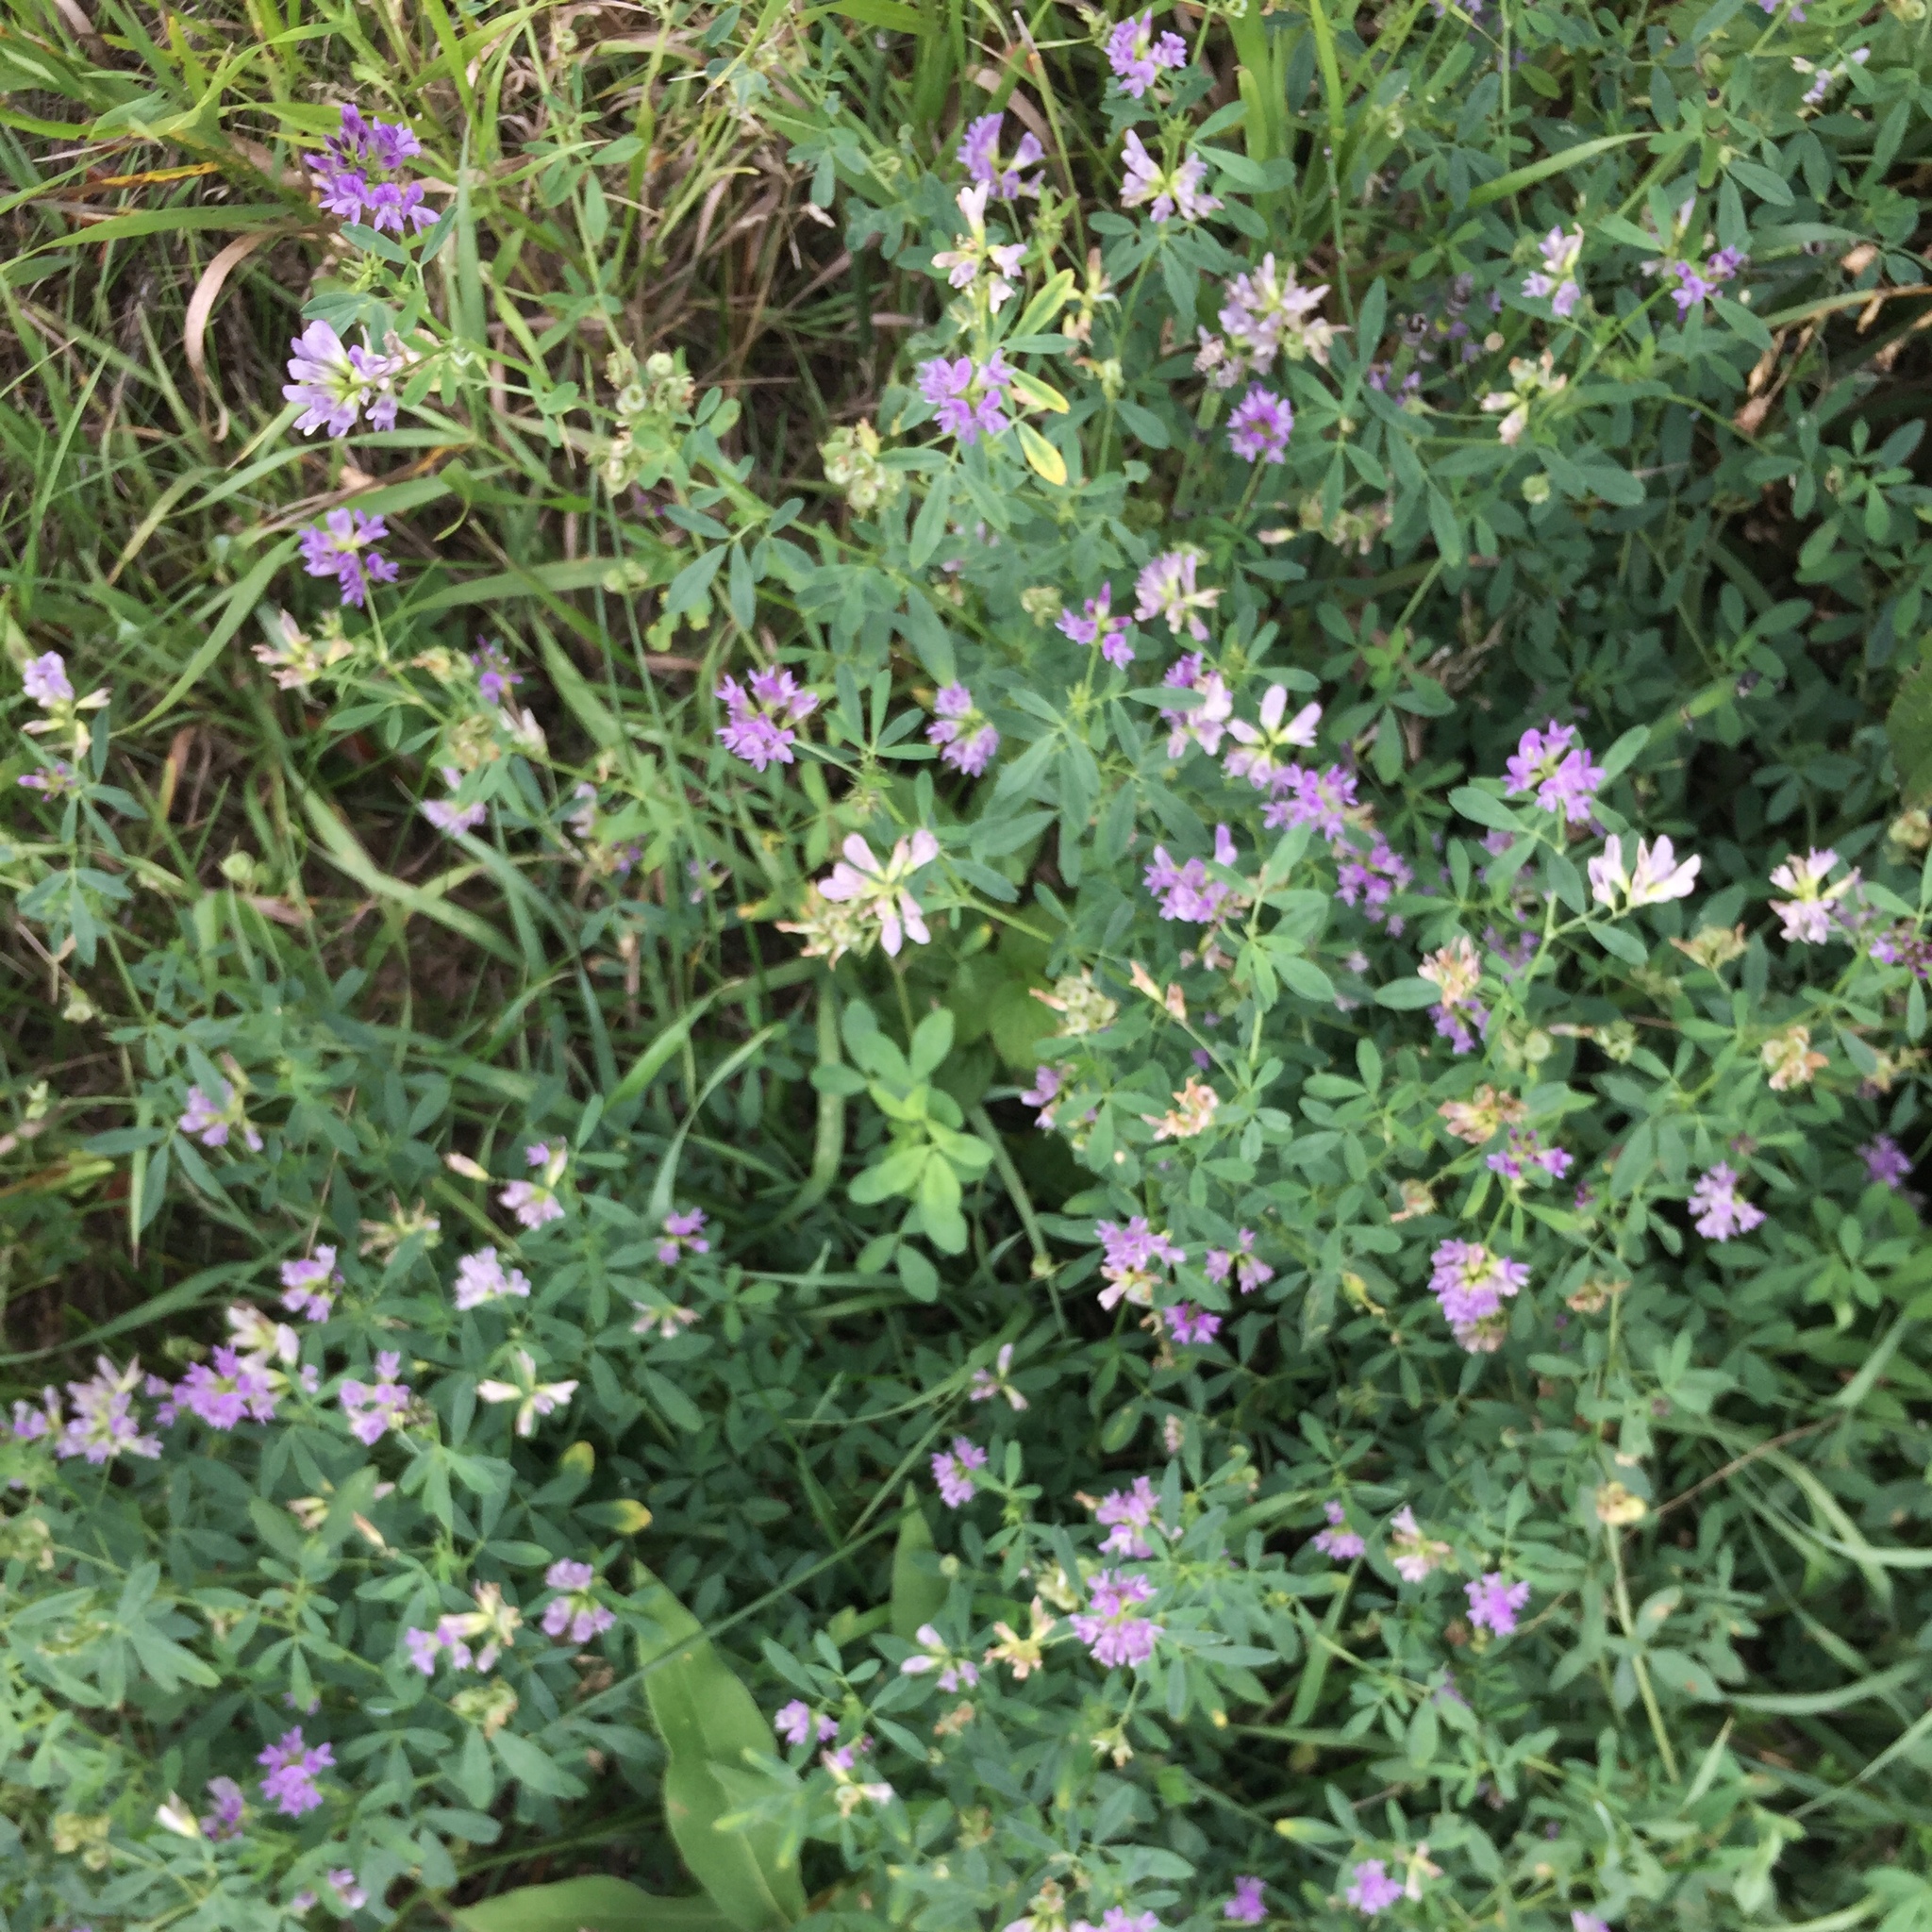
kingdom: Plantae
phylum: Tracheophyta
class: Magnoliopsida
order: Fabales
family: Fabaceae
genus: Medicago
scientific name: Medicago sativa
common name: Alfalfa
